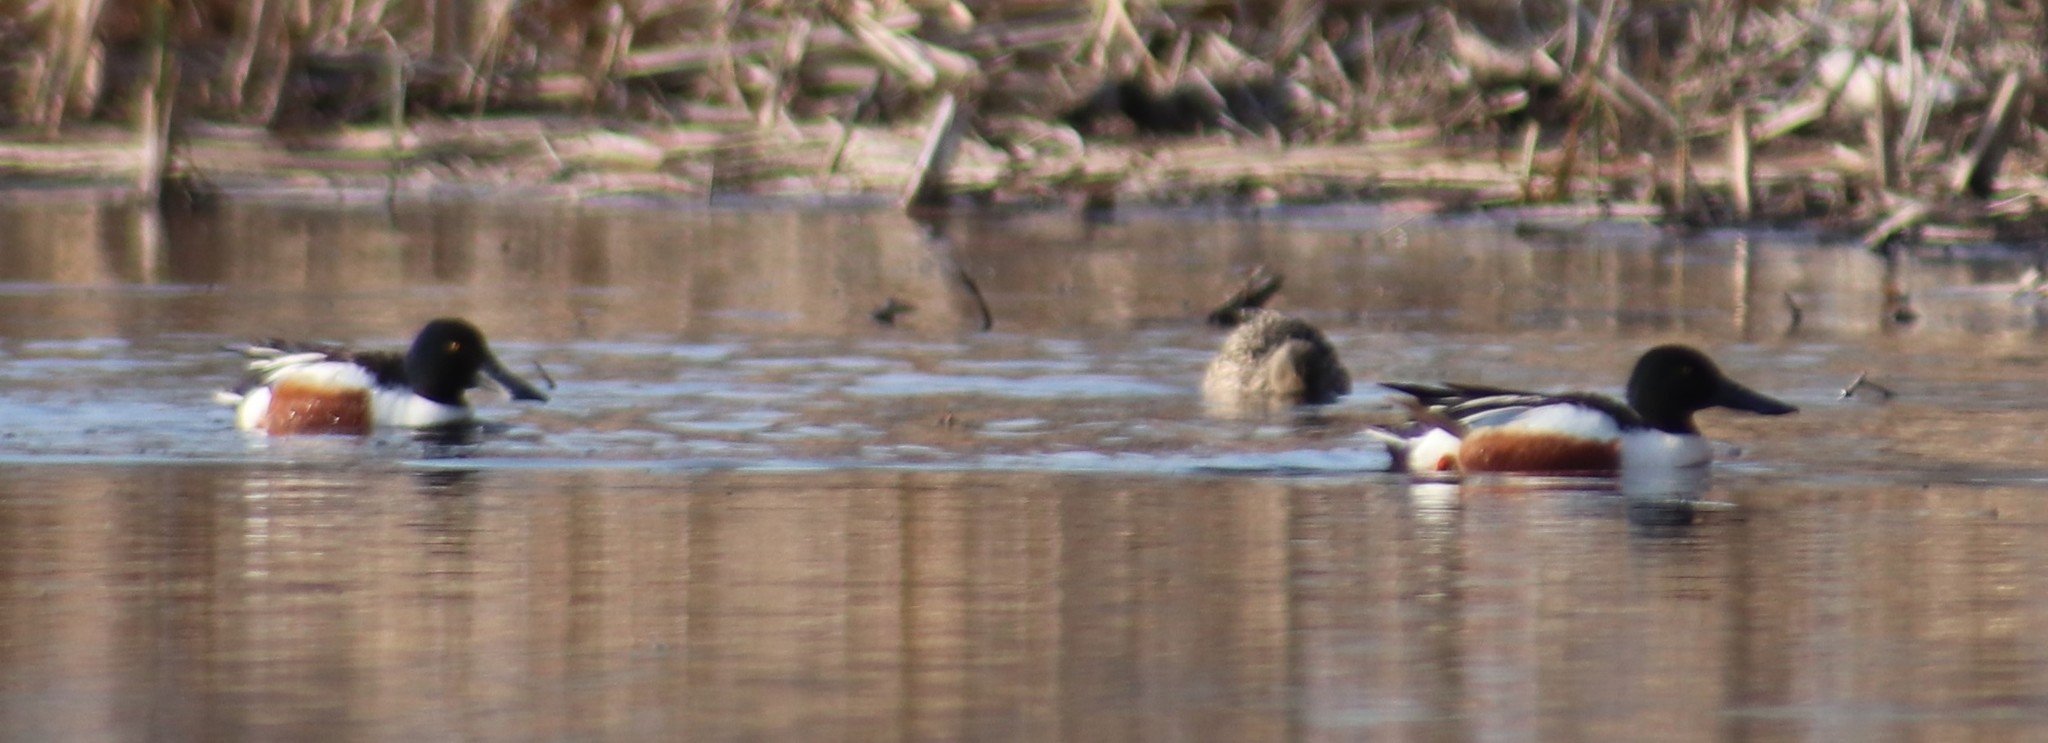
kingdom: Animalia
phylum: Chordata
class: Aves
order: Anseriformes
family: Anatidae
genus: Spatula
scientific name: Spatula clypeata
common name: Northern shoveler
